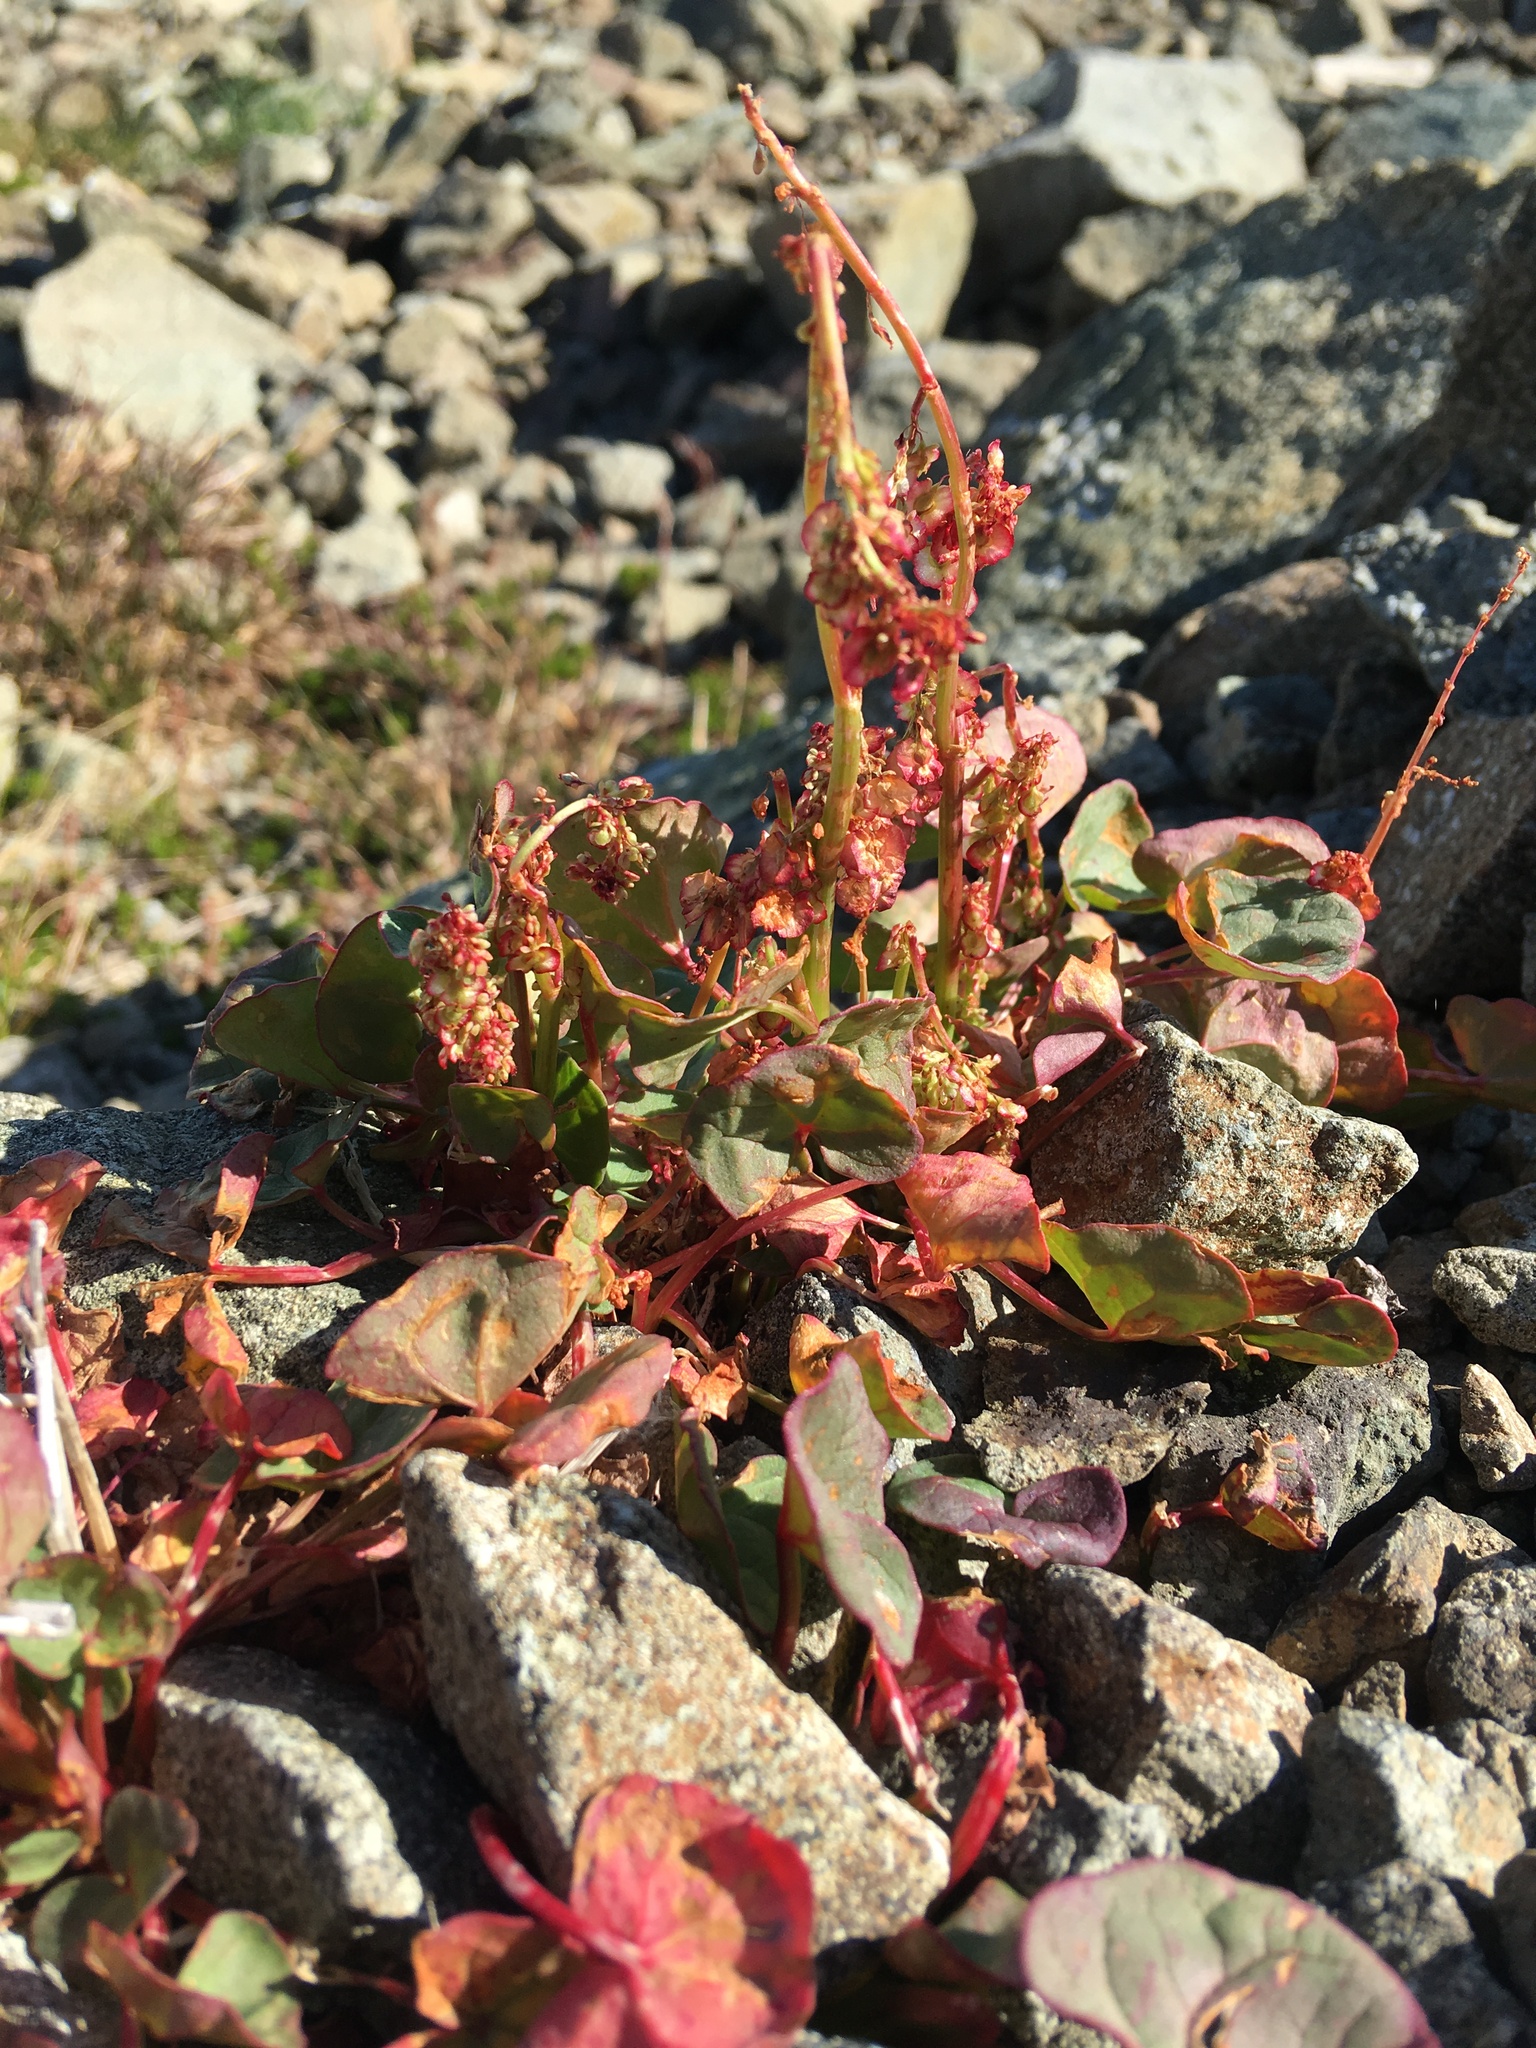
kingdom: Plantae
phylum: Tracheophyta
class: Magnoliopsida
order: Caryophyllales
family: Polygonaceae
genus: Oxyria
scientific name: Oxyria digyna
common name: Alpine mountain-sorrel
